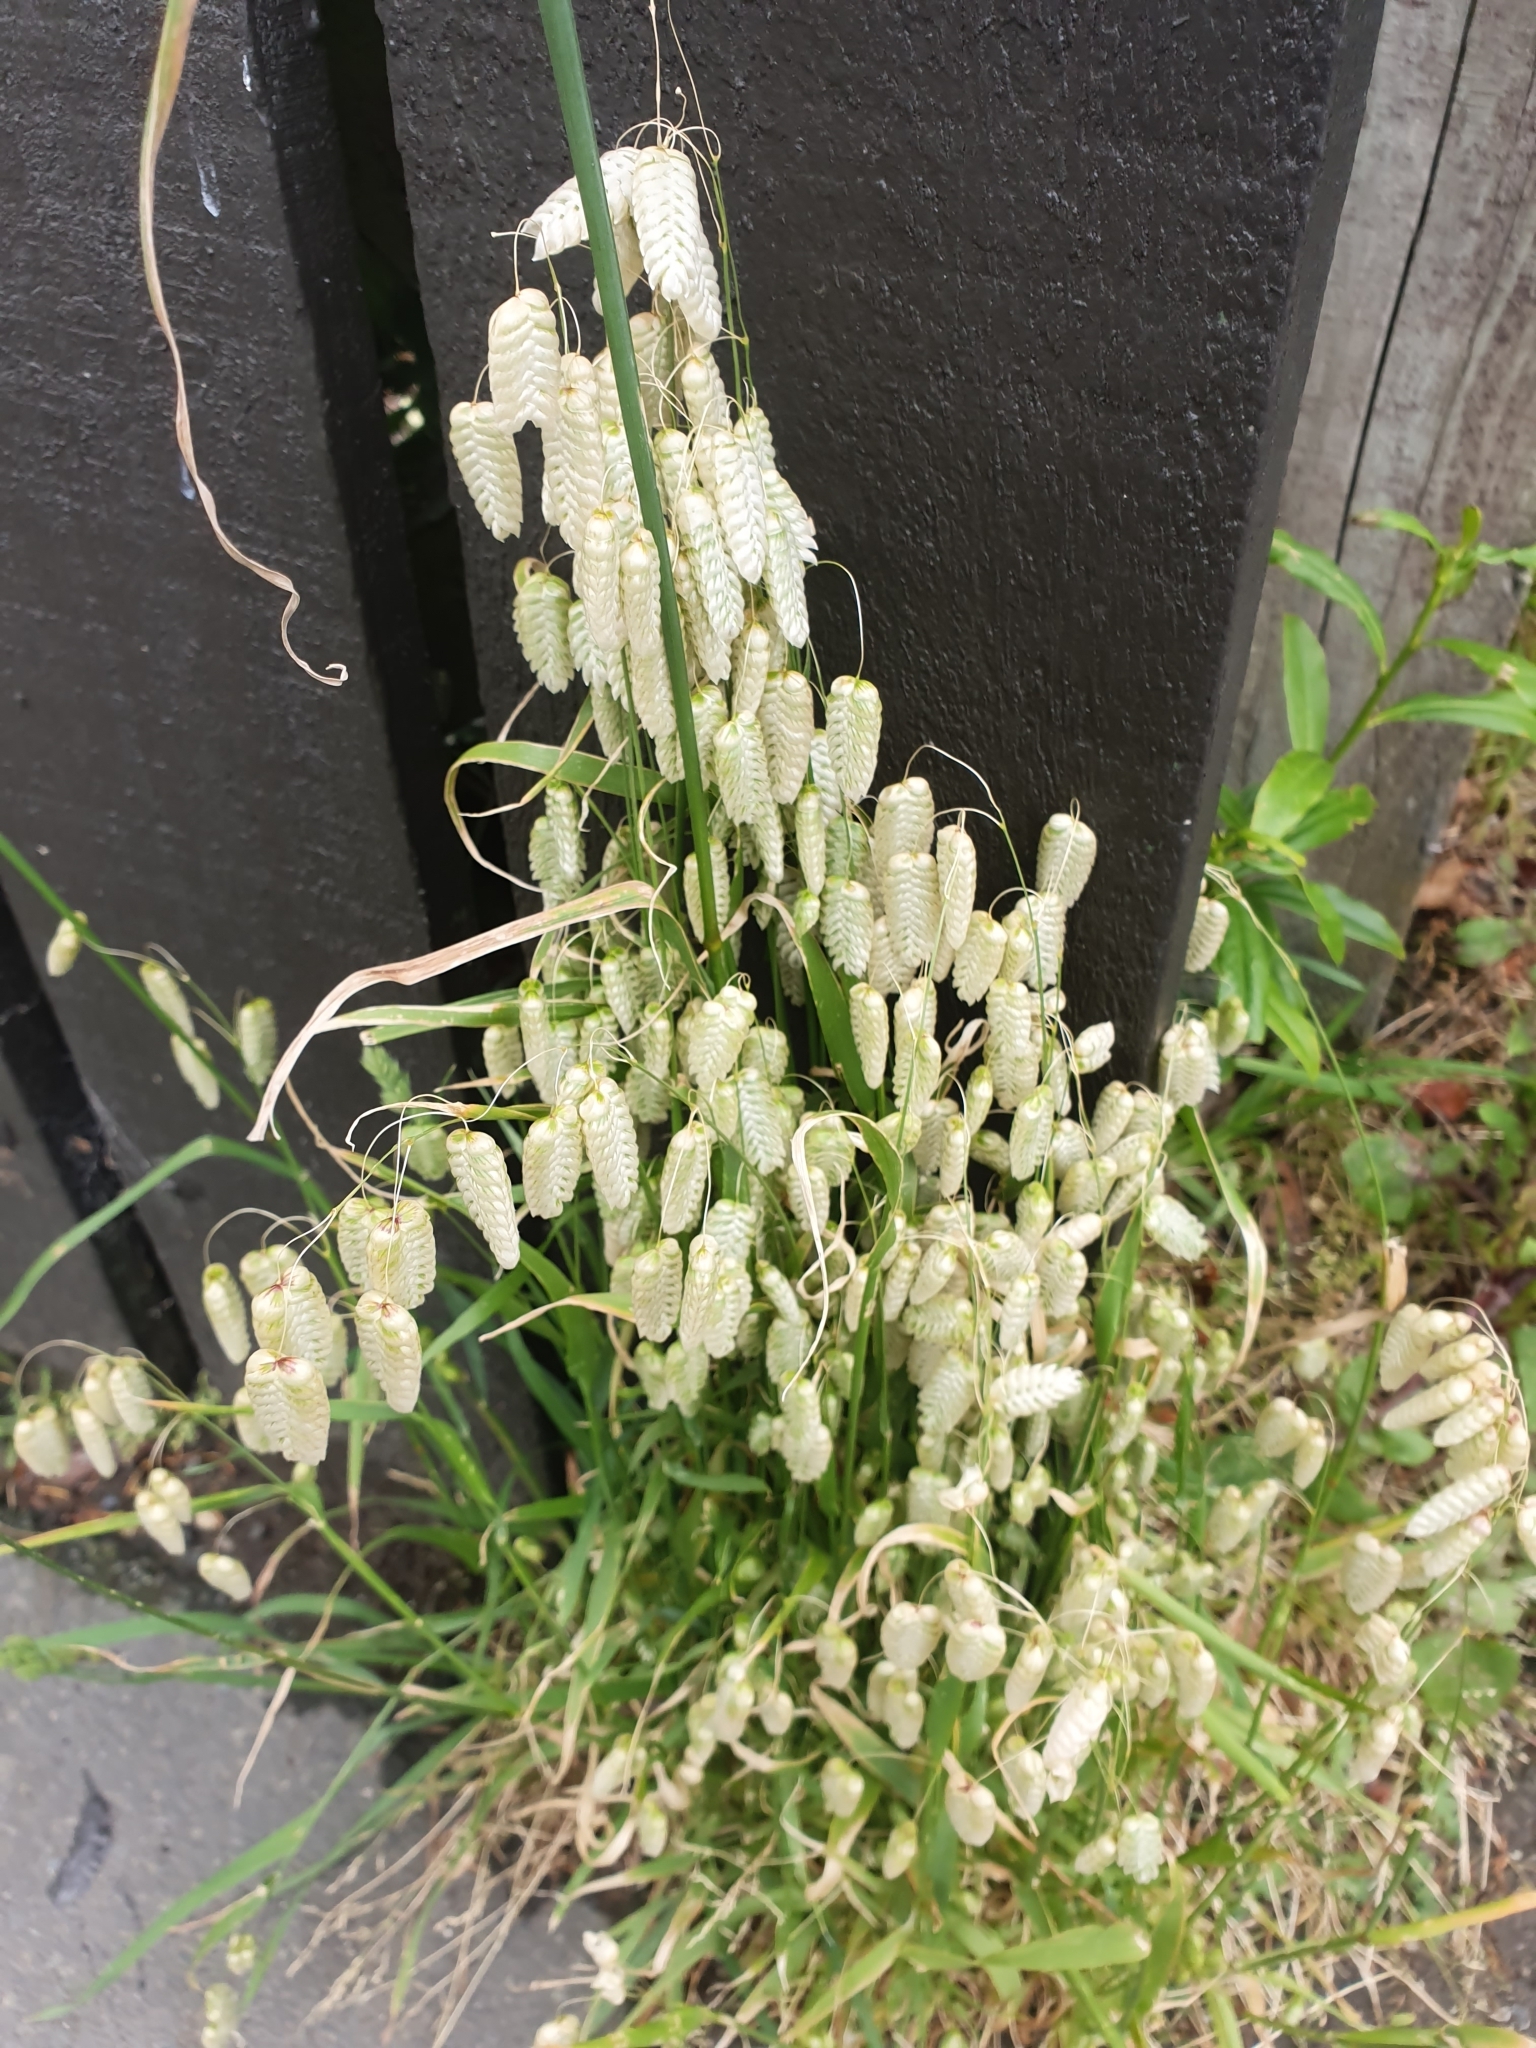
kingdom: Plantae
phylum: Tracheophyta
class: Liliopsida
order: Poales
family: Poaceae
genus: Briza
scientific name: Briza maxima
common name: Big quakinggrass
